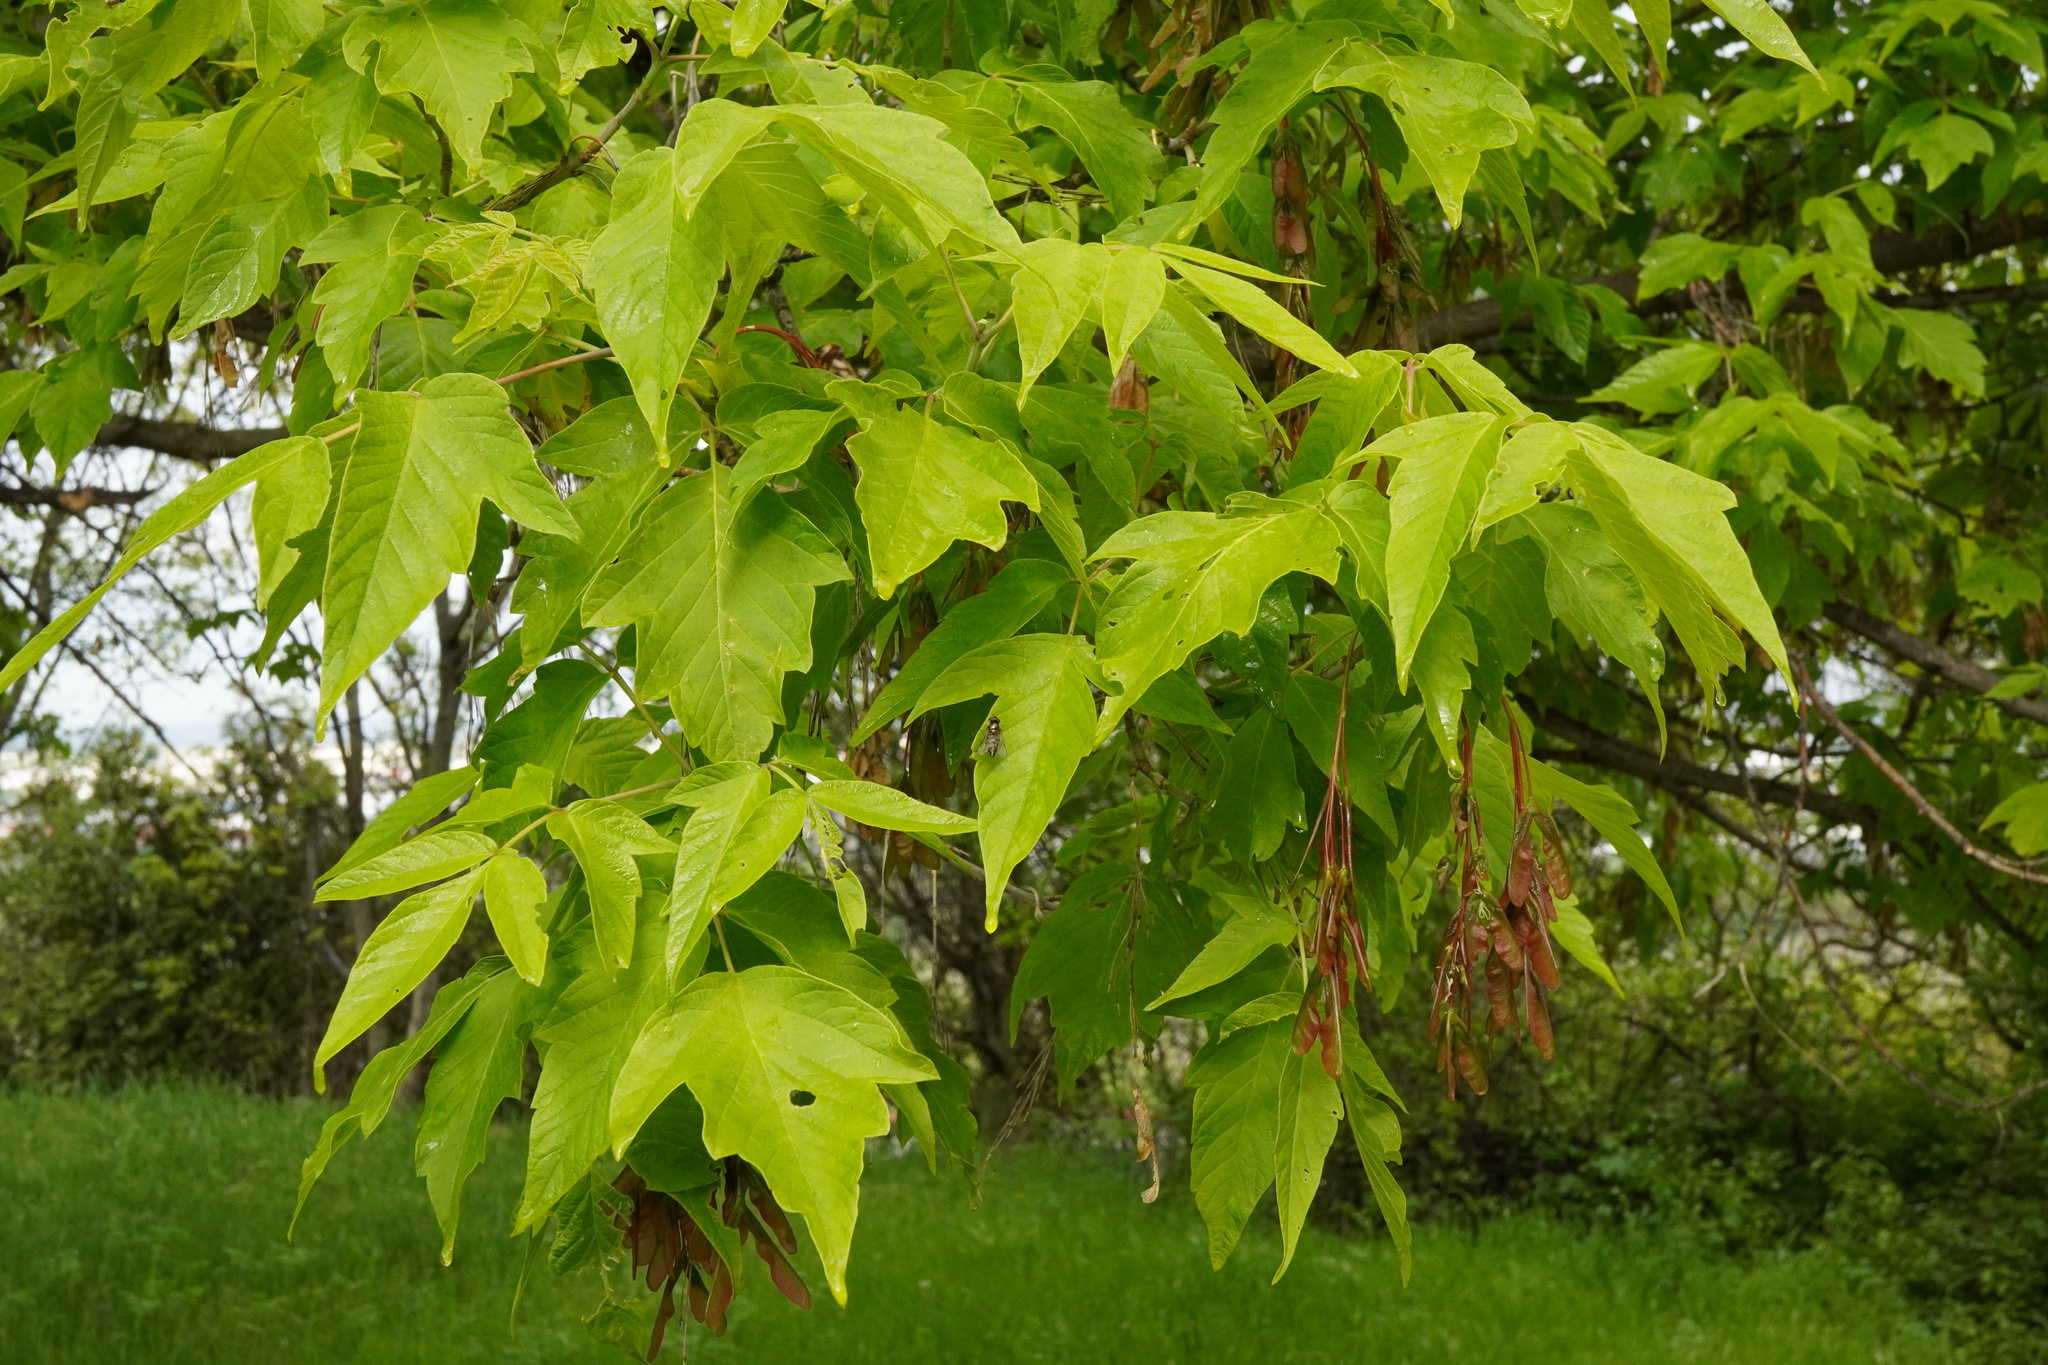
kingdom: Plantae
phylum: Tracheophyta
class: Magnoliopsida
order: Sapindales
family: Sapindaceae
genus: Acer
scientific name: Acer negundo
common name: Ashleaf maple
